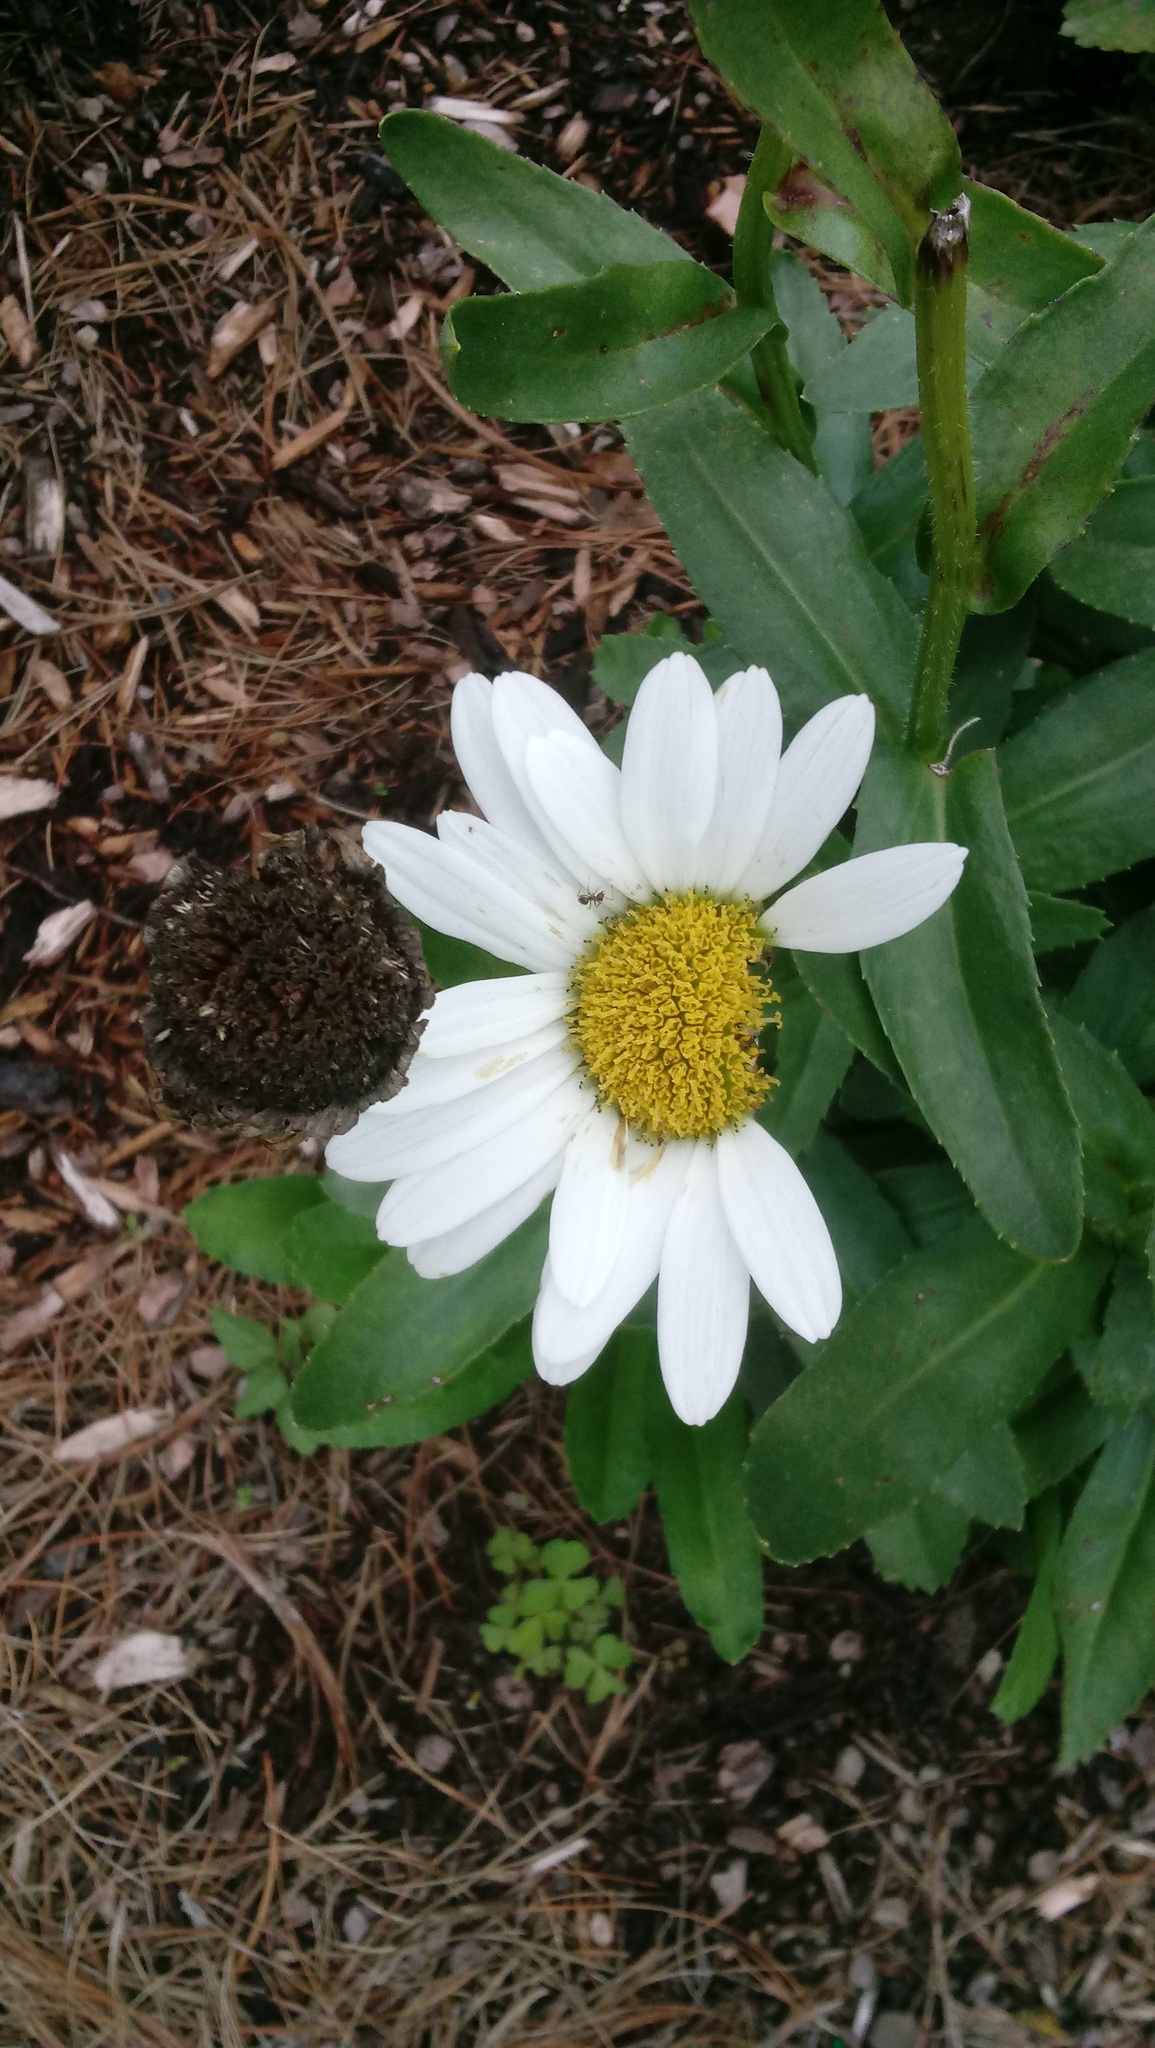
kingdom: Plantae
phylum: Tracheophyta
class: Magnoliopsida
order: Asterales
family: Asteraceae
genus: Leucanthemum
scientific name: Leucanthemum maximum
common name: Max chrysanthemum
